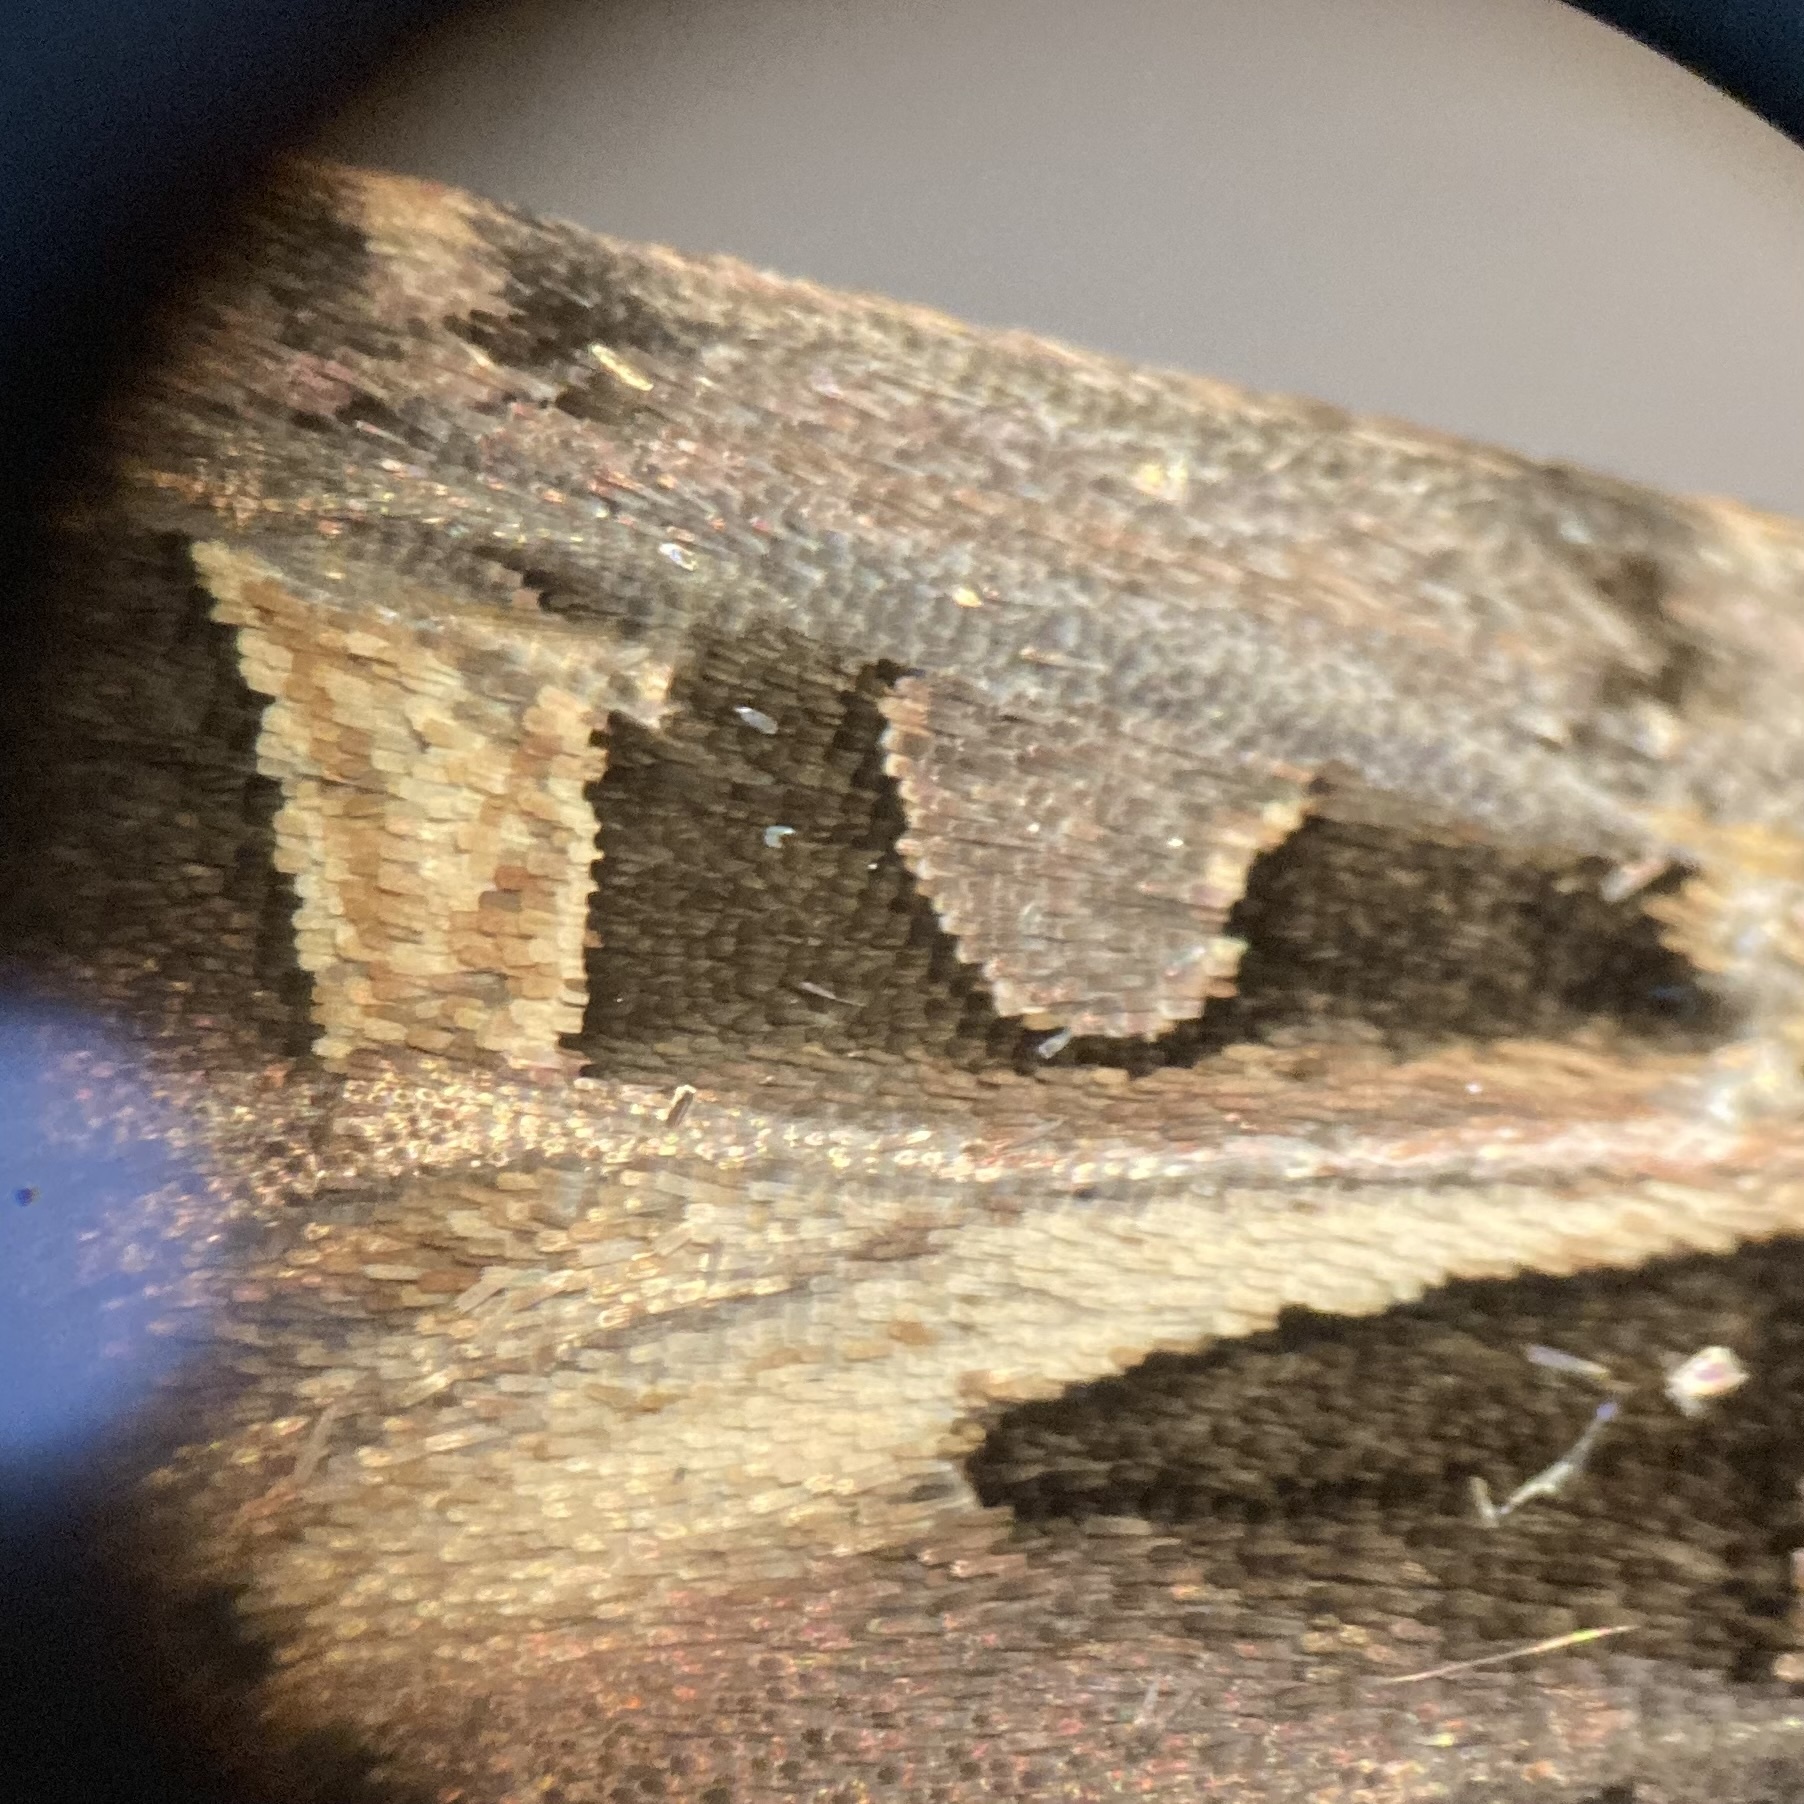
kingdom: Animalia
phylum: Arthropoda
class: Insecta
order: Lepidoptera
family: Noctuidae
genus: Feltia
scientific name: Feltia herilis
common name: Master's dart
